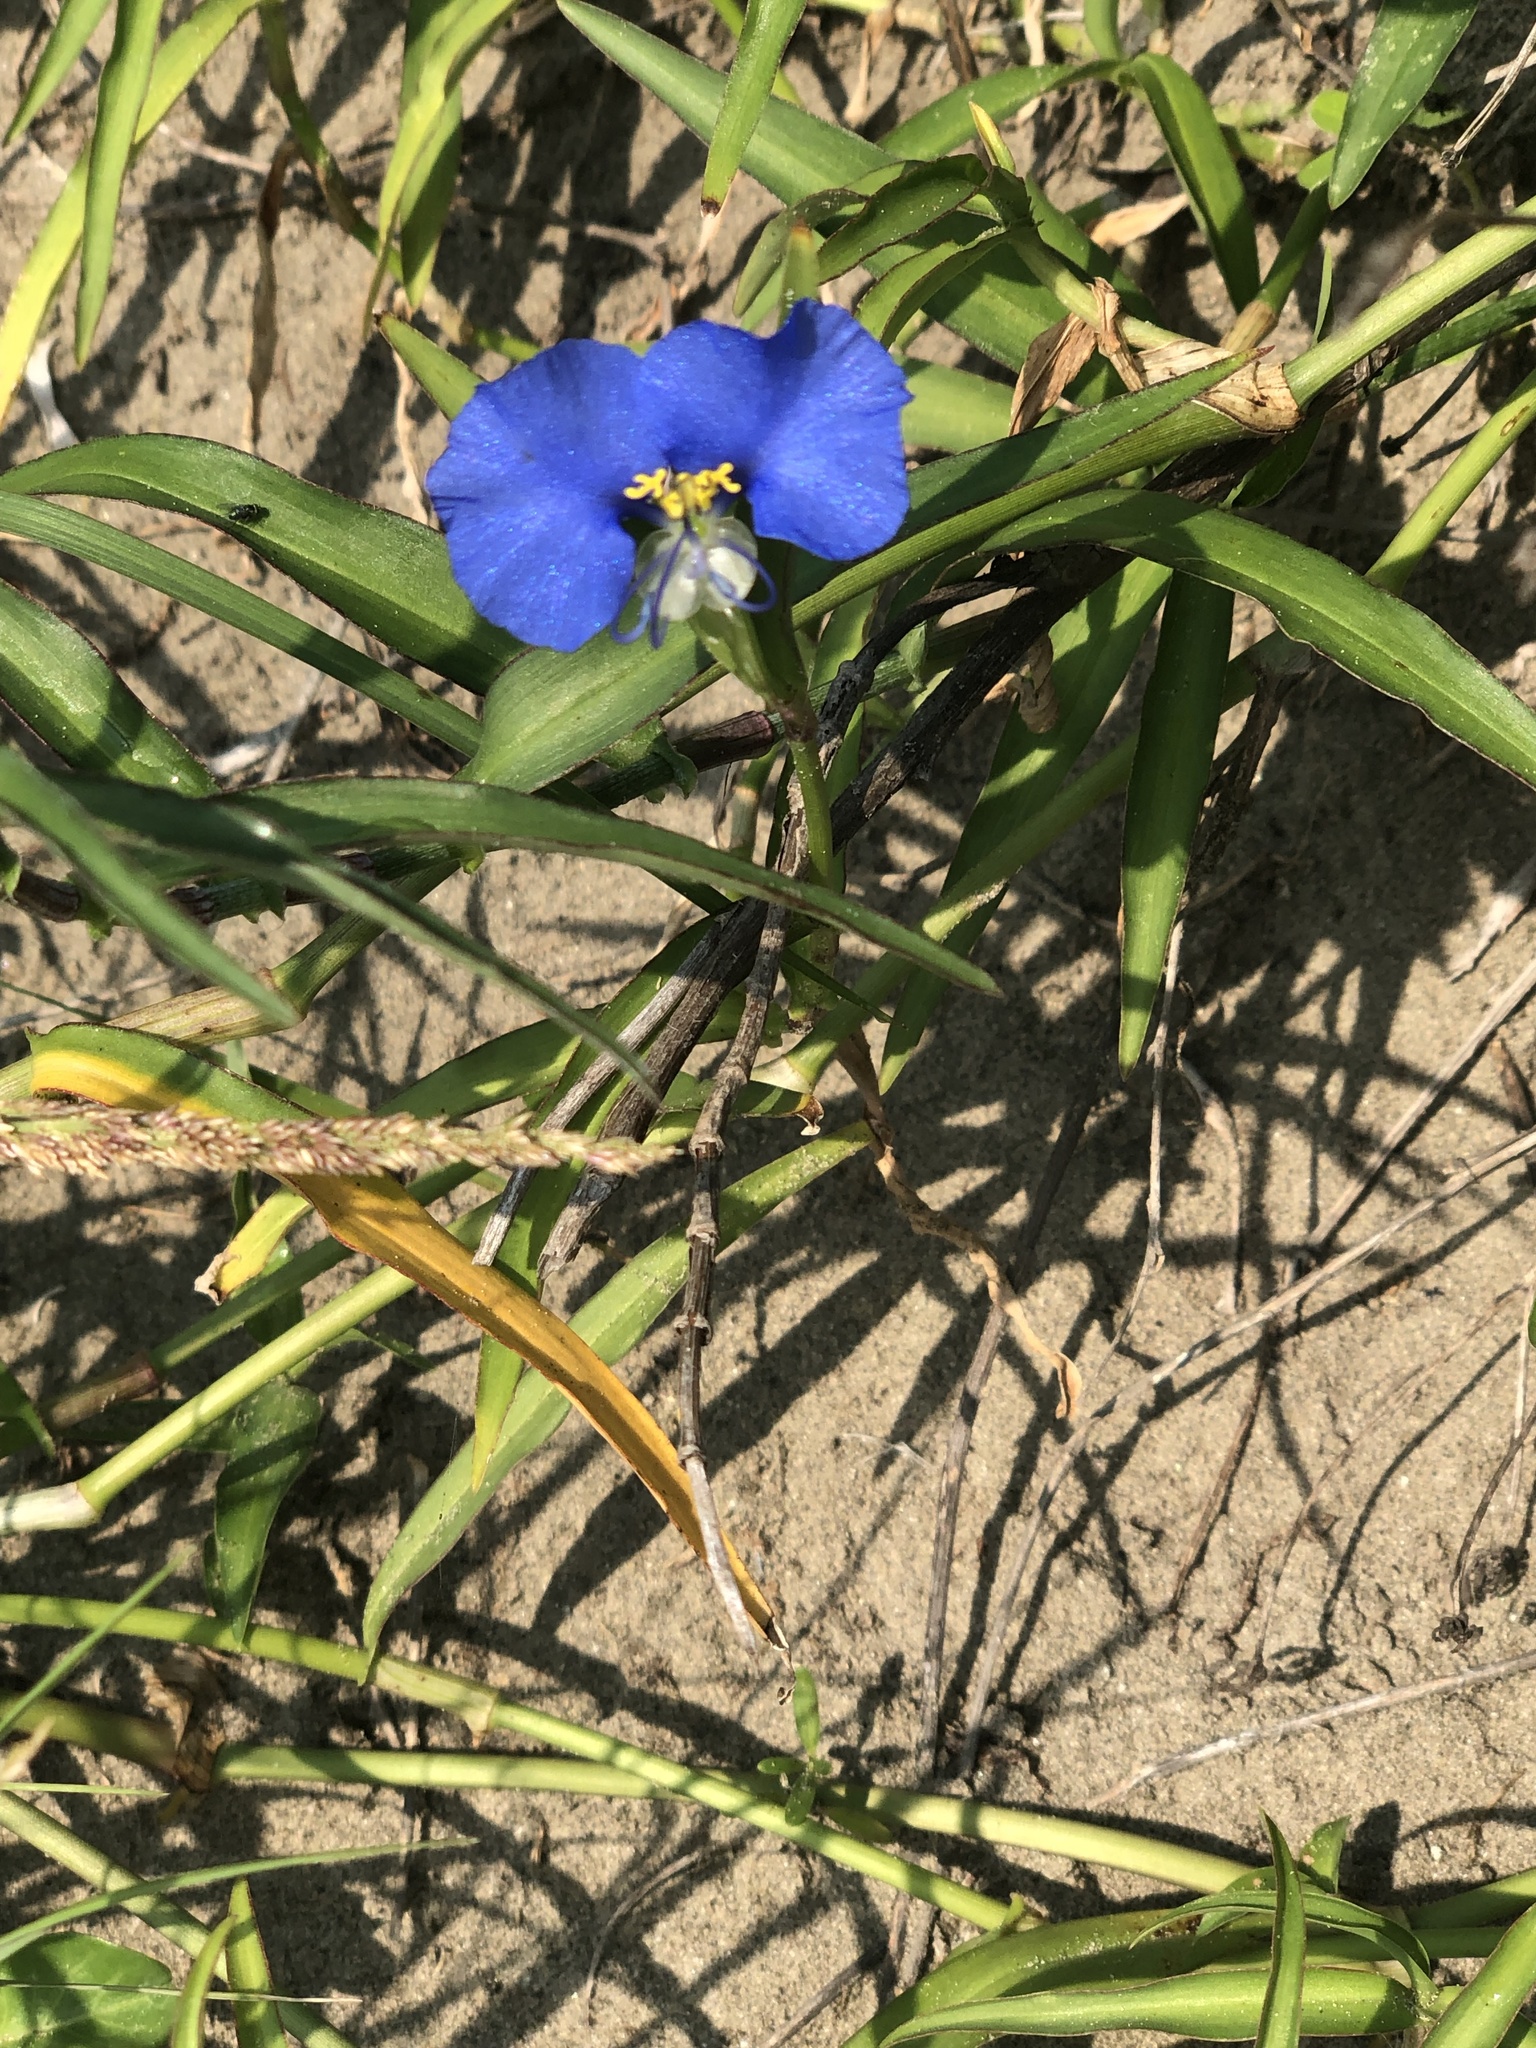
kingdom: Plantae
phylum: Tracheophyta
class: Liliopsida
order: Commelinales
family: Commelinaceae
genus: Commelina
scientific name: Commelina erecta
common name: Blousel blommetjie
